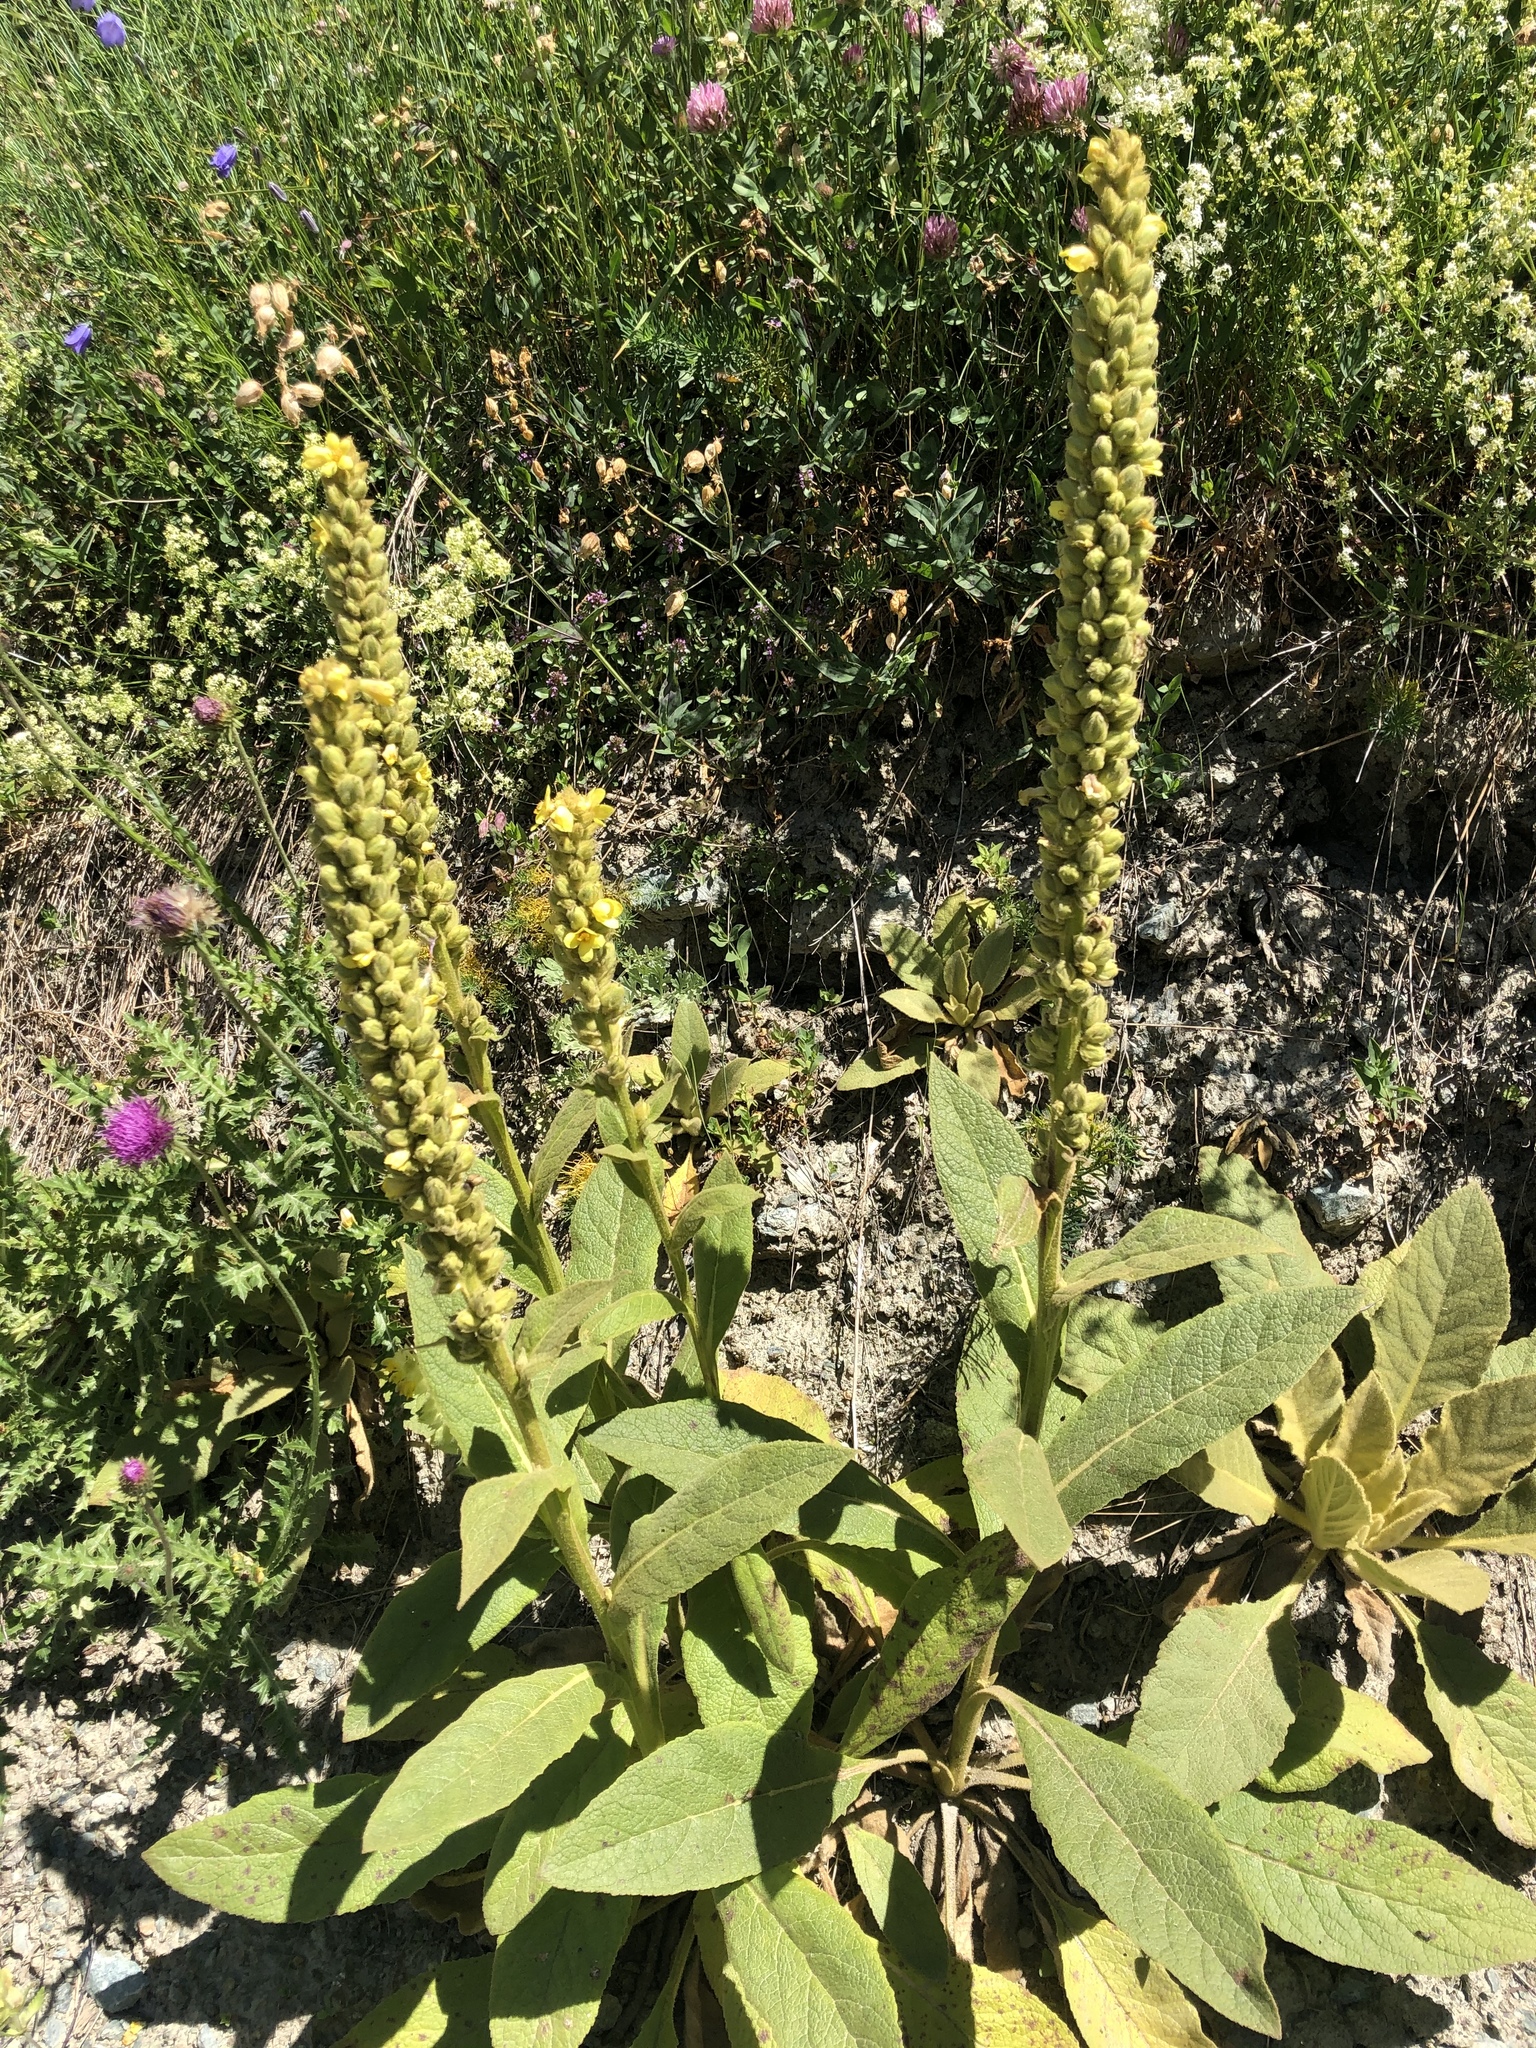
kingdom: Plantae
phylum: Tracheophyta
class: Magnoliopsida
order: Lamiales
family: Scrophulariaceae
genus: Verbascum
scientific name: Verbascum thapsus
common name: Common mullein
